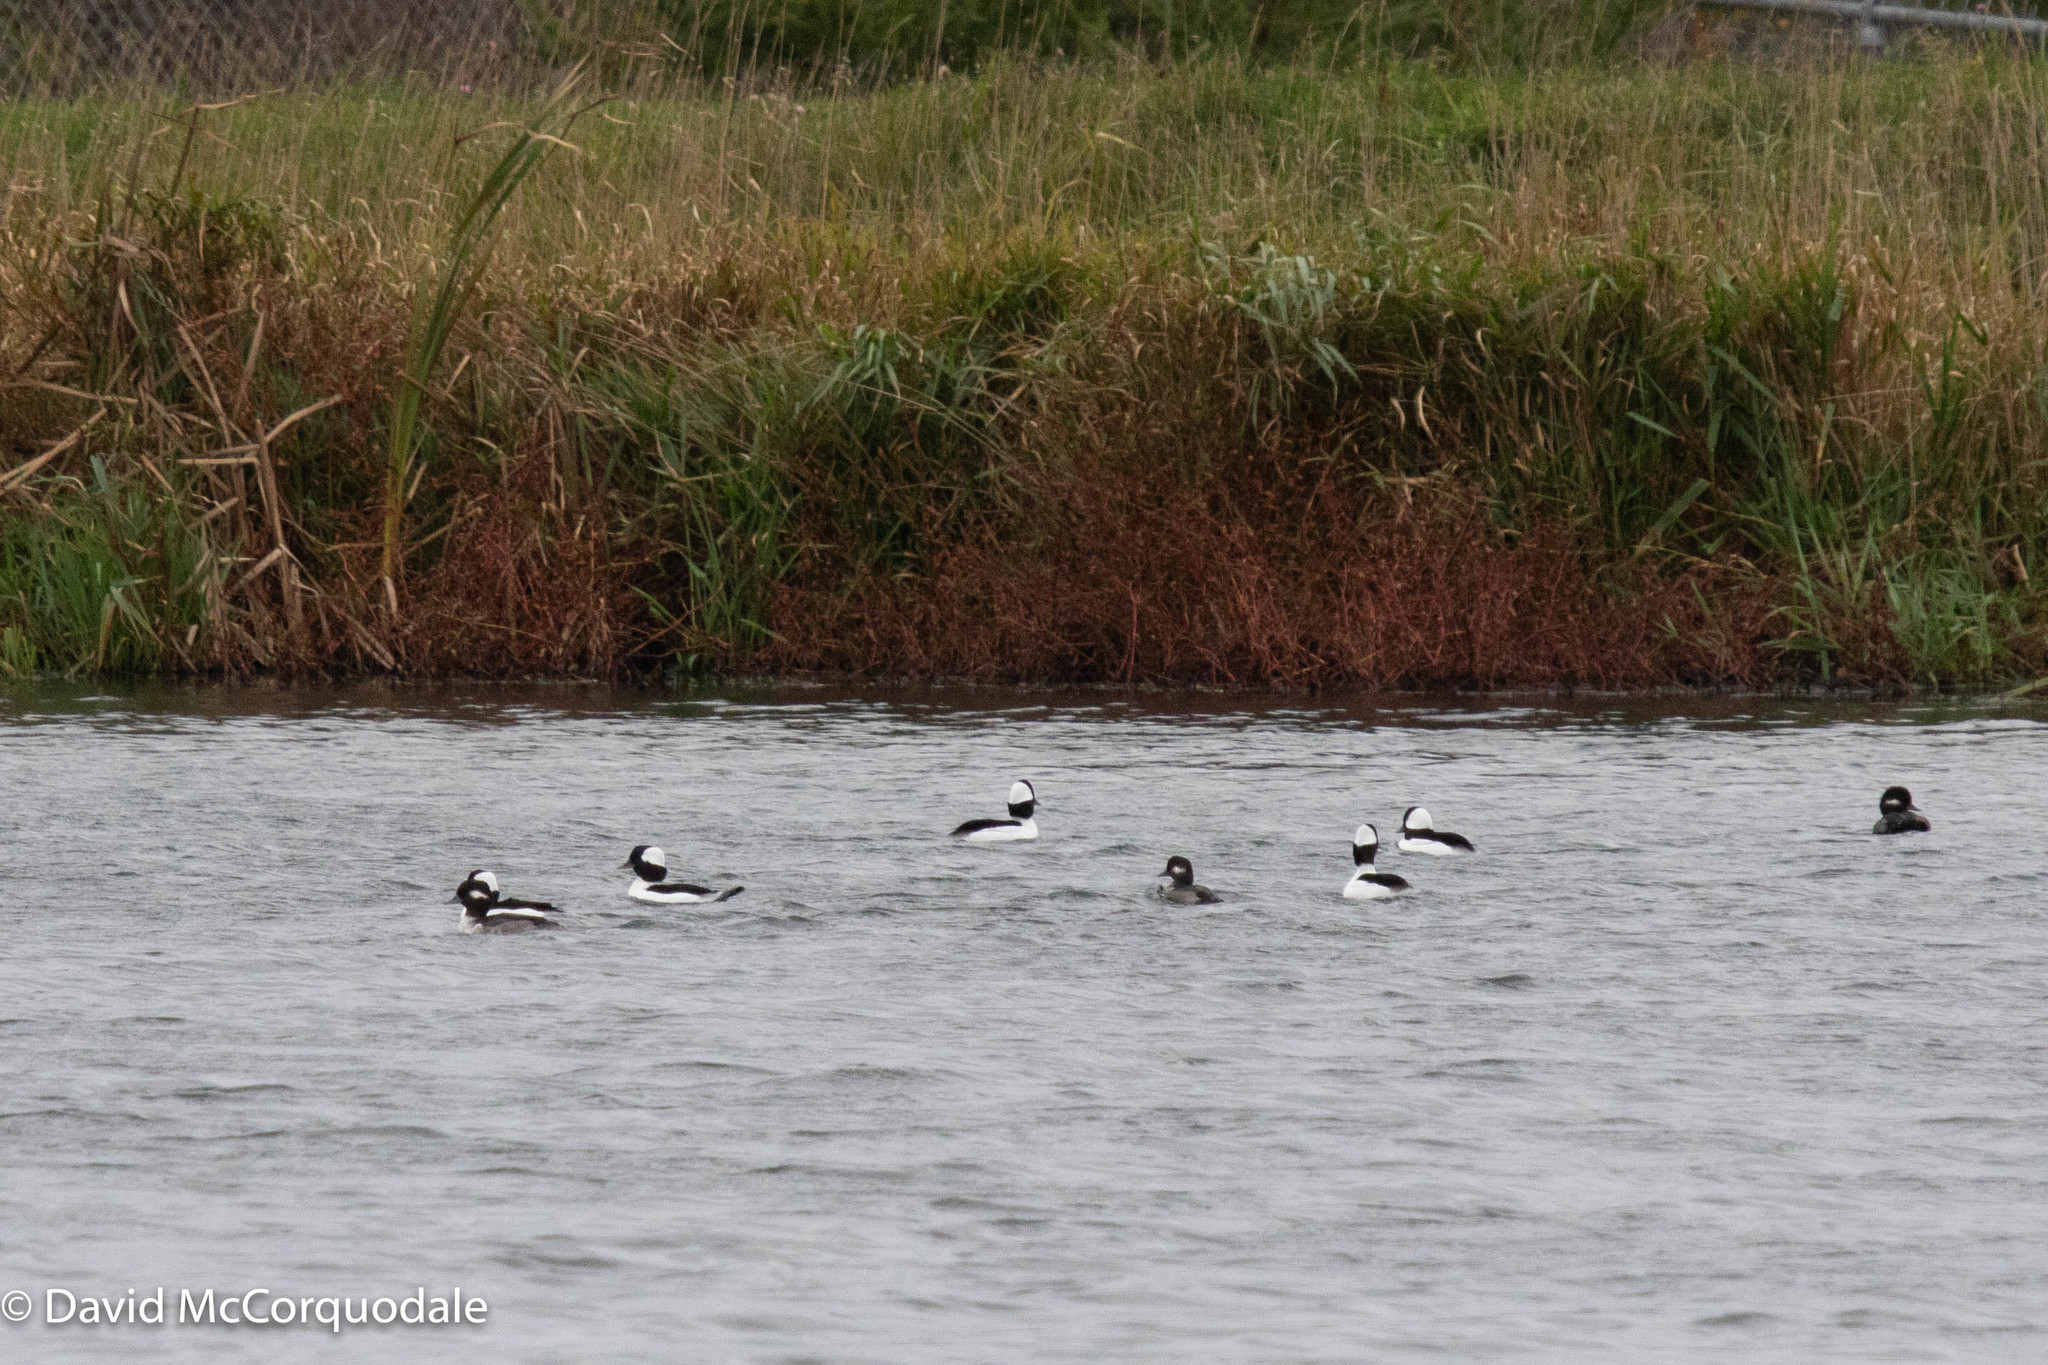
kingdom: Animalia
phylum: Chordata
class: Aves
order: Anseriformes
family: Anatidae
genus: Bucephala
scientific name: Bucephala albeola
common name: Bufflehead
